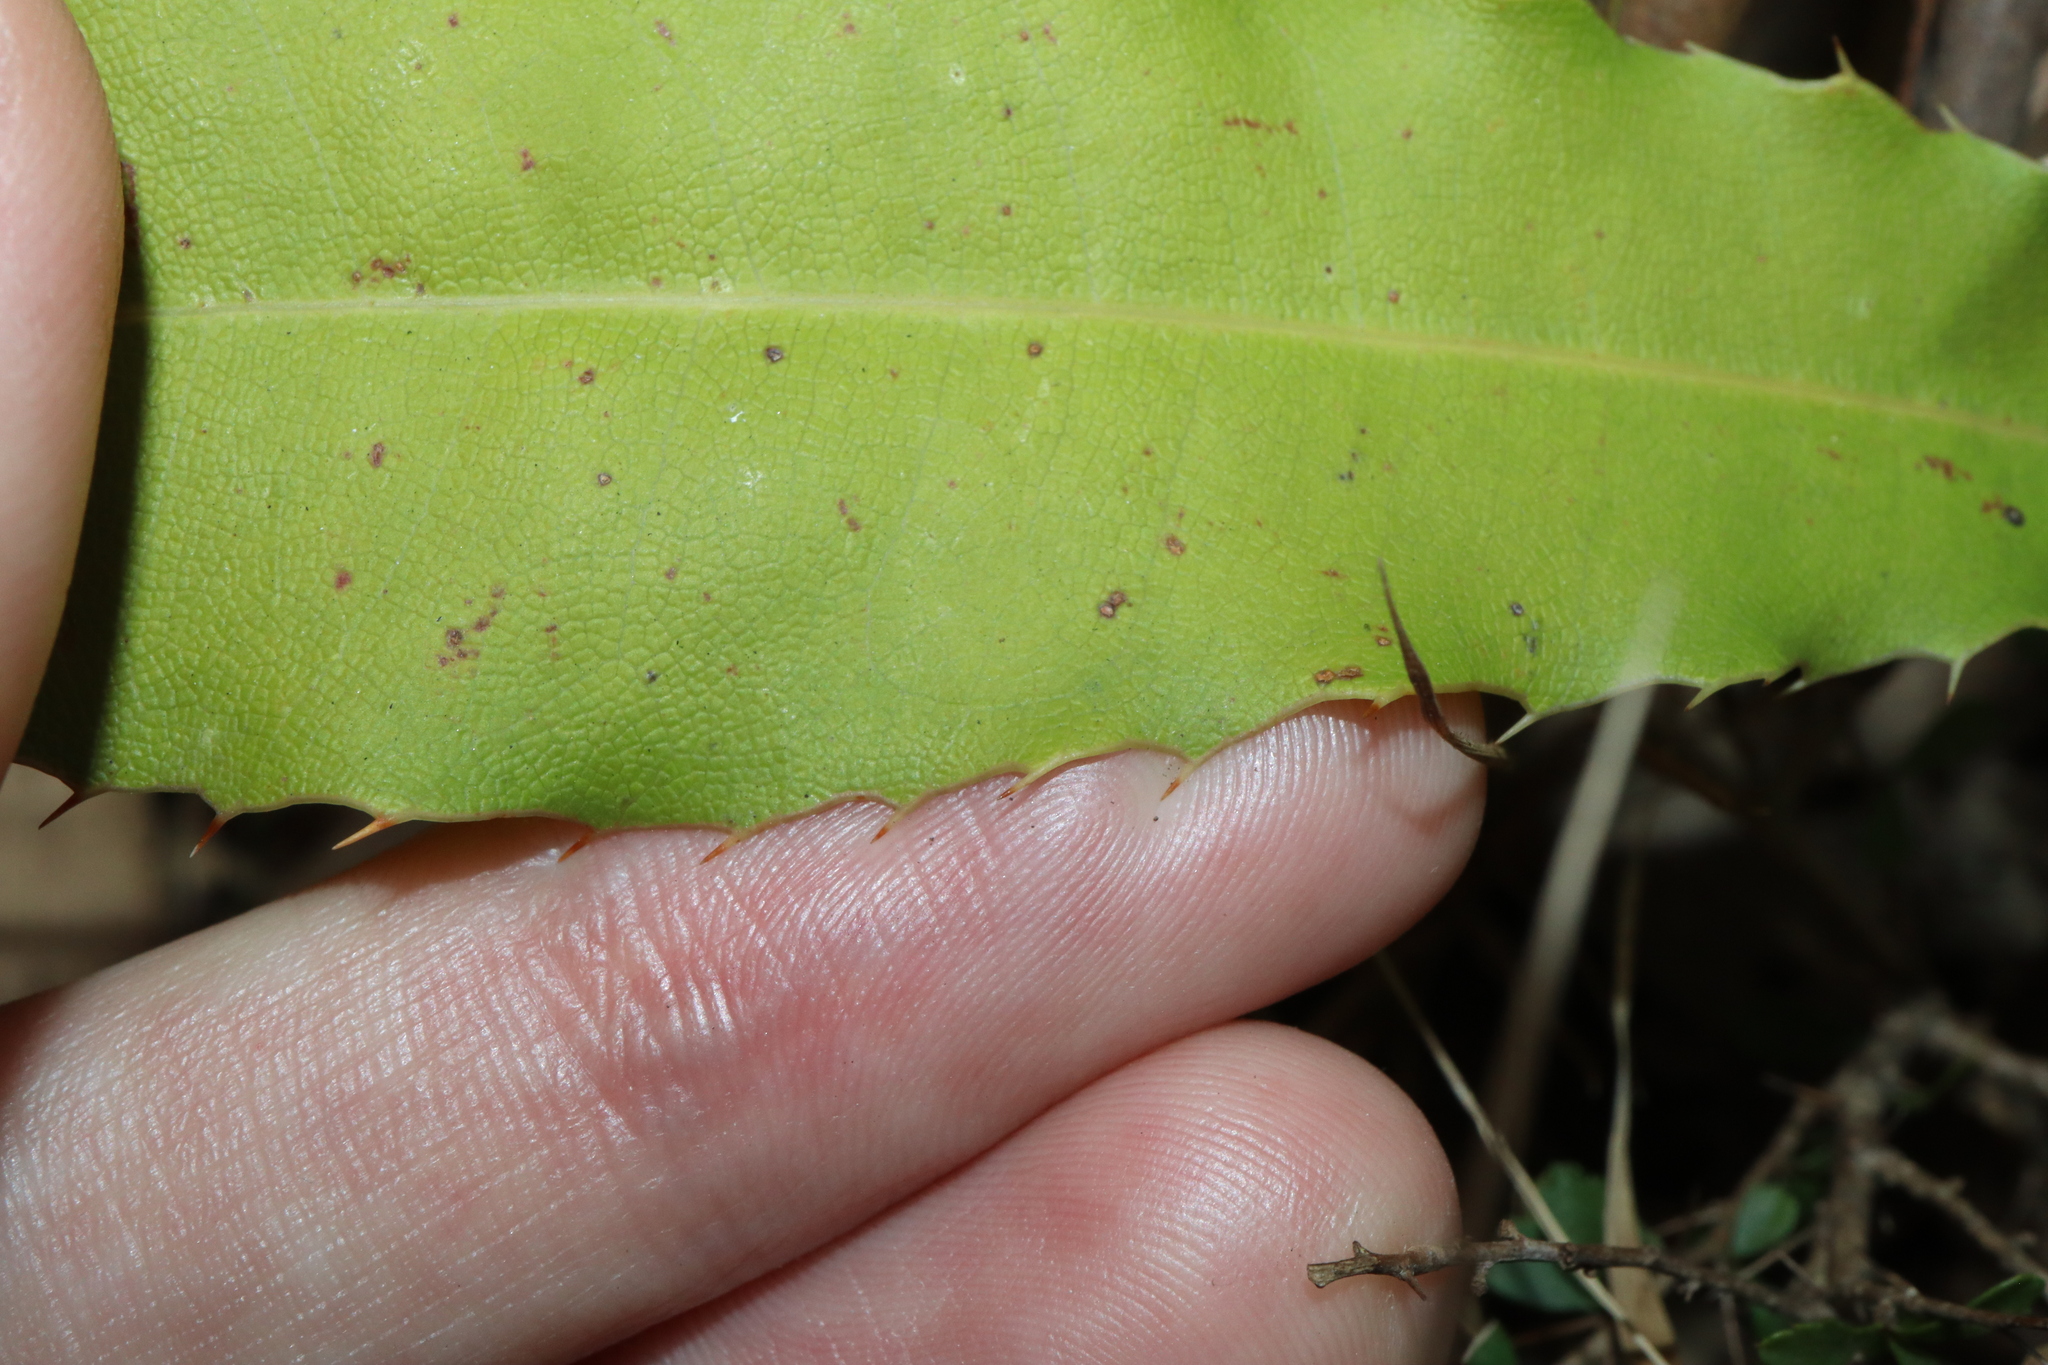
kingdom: Plantae
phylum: Tracheophyta
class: Magnoliopsida
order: Proteales
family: Proteaceae
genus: Macadamia
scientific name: Macadamia tetraphylla
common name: Macadamia nut
